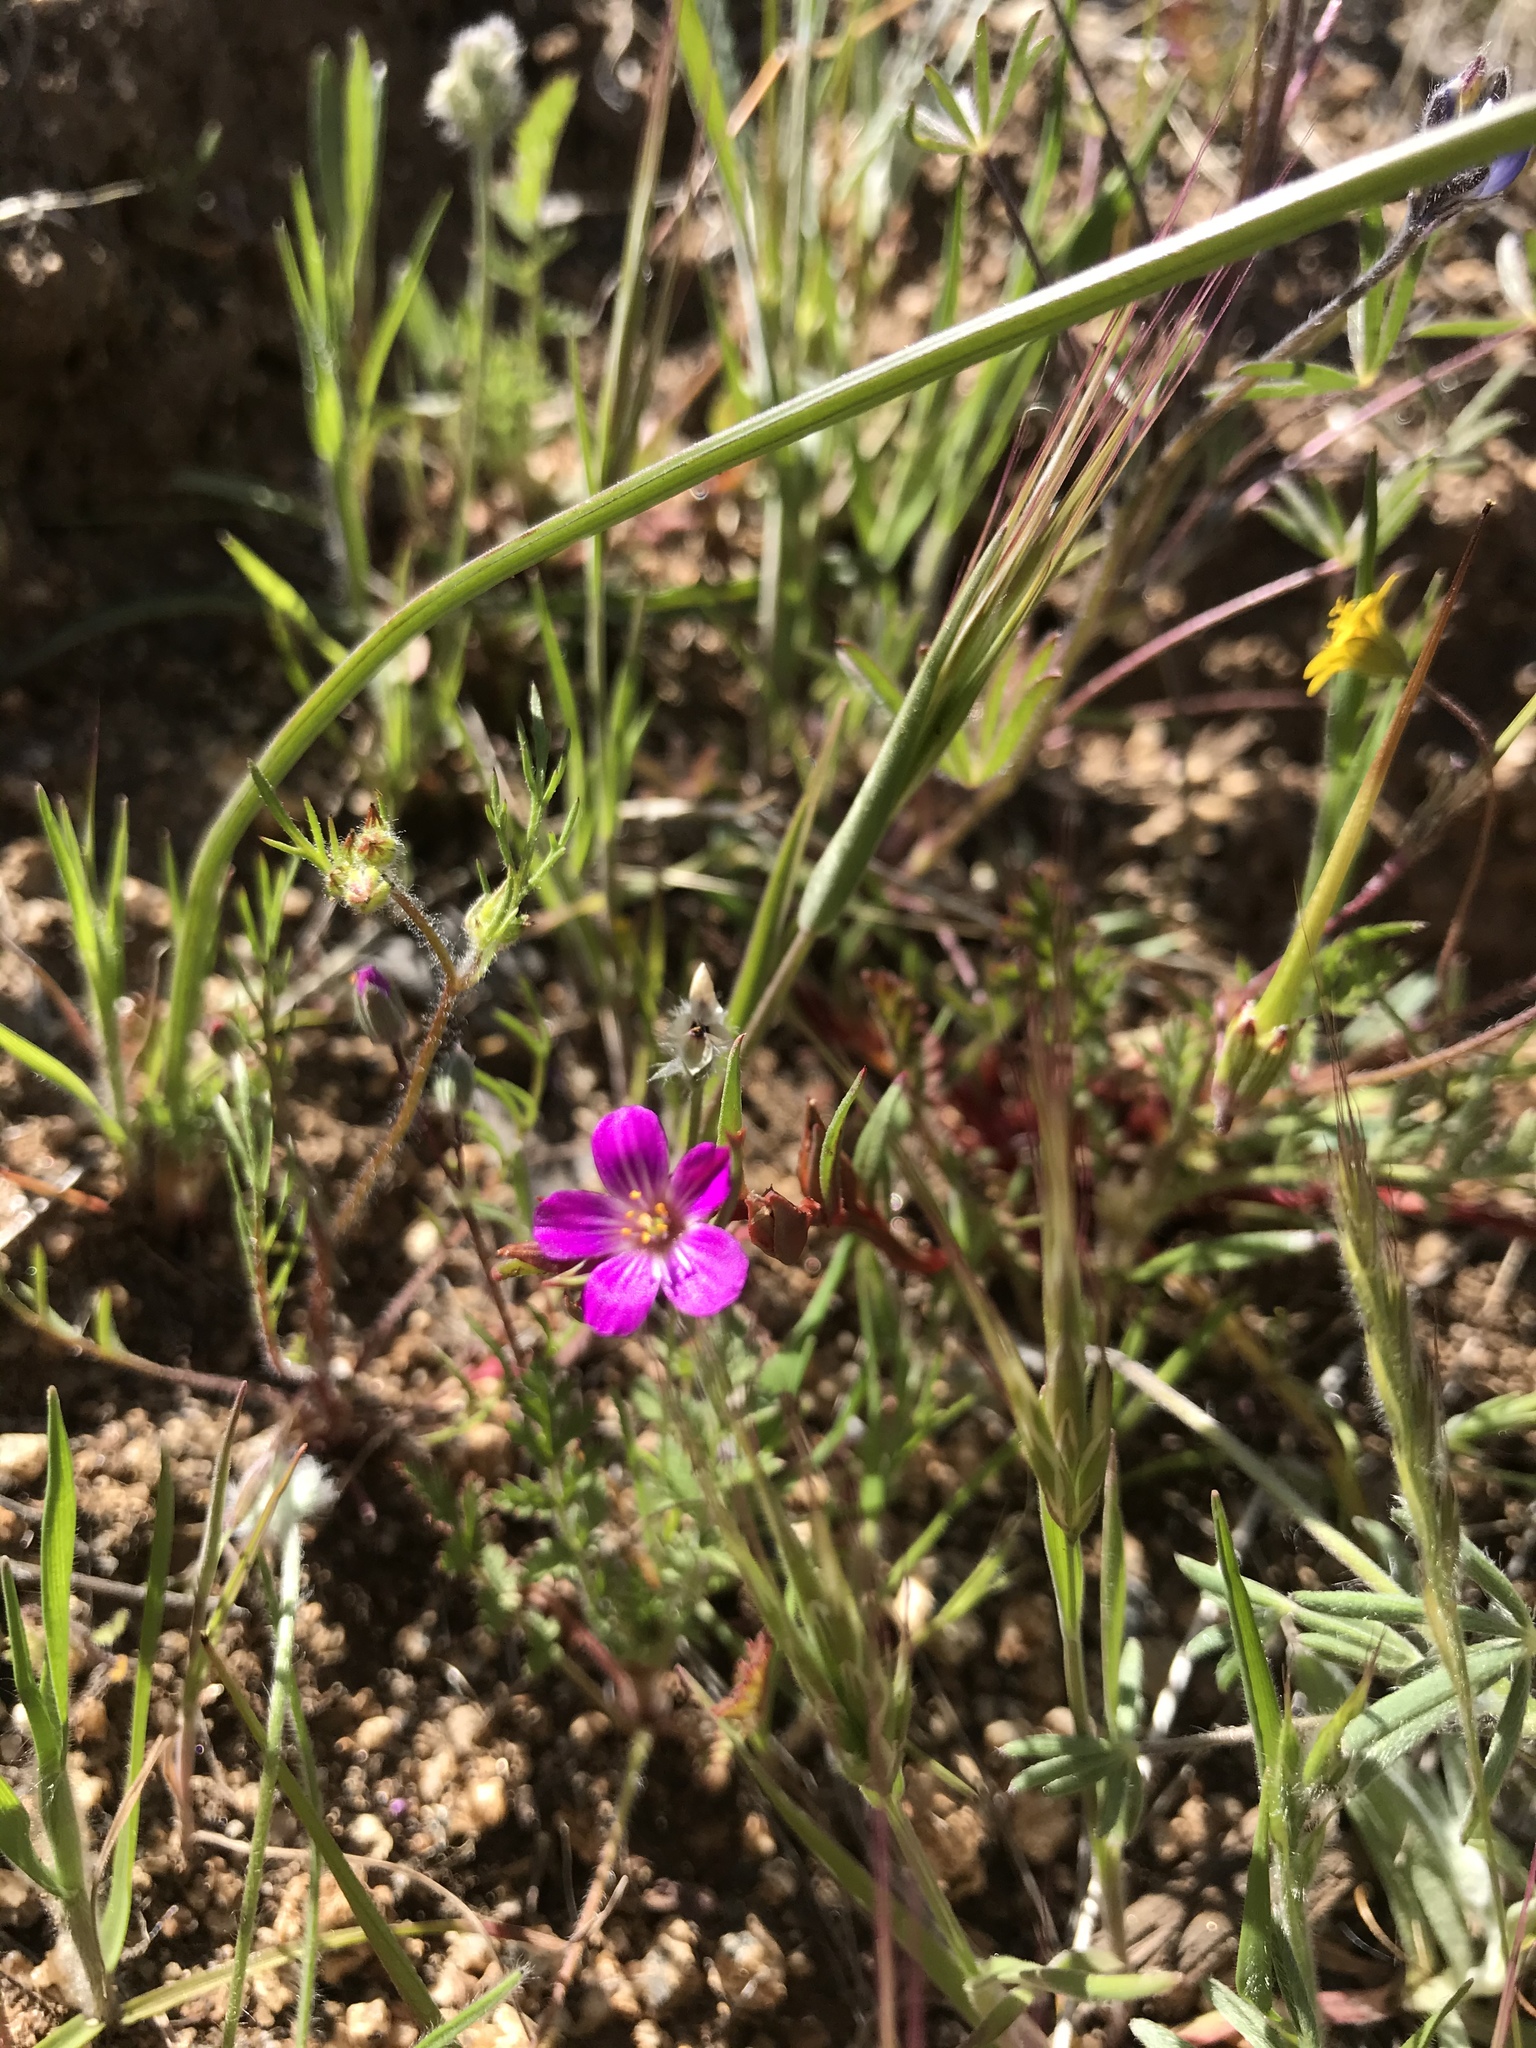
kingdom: Plantae
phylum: Tracheophyta
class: Magnoliopsida
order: Caryophyllales
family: Montiaceae
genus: Calandrinia
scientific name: Calandrinia menziesii
